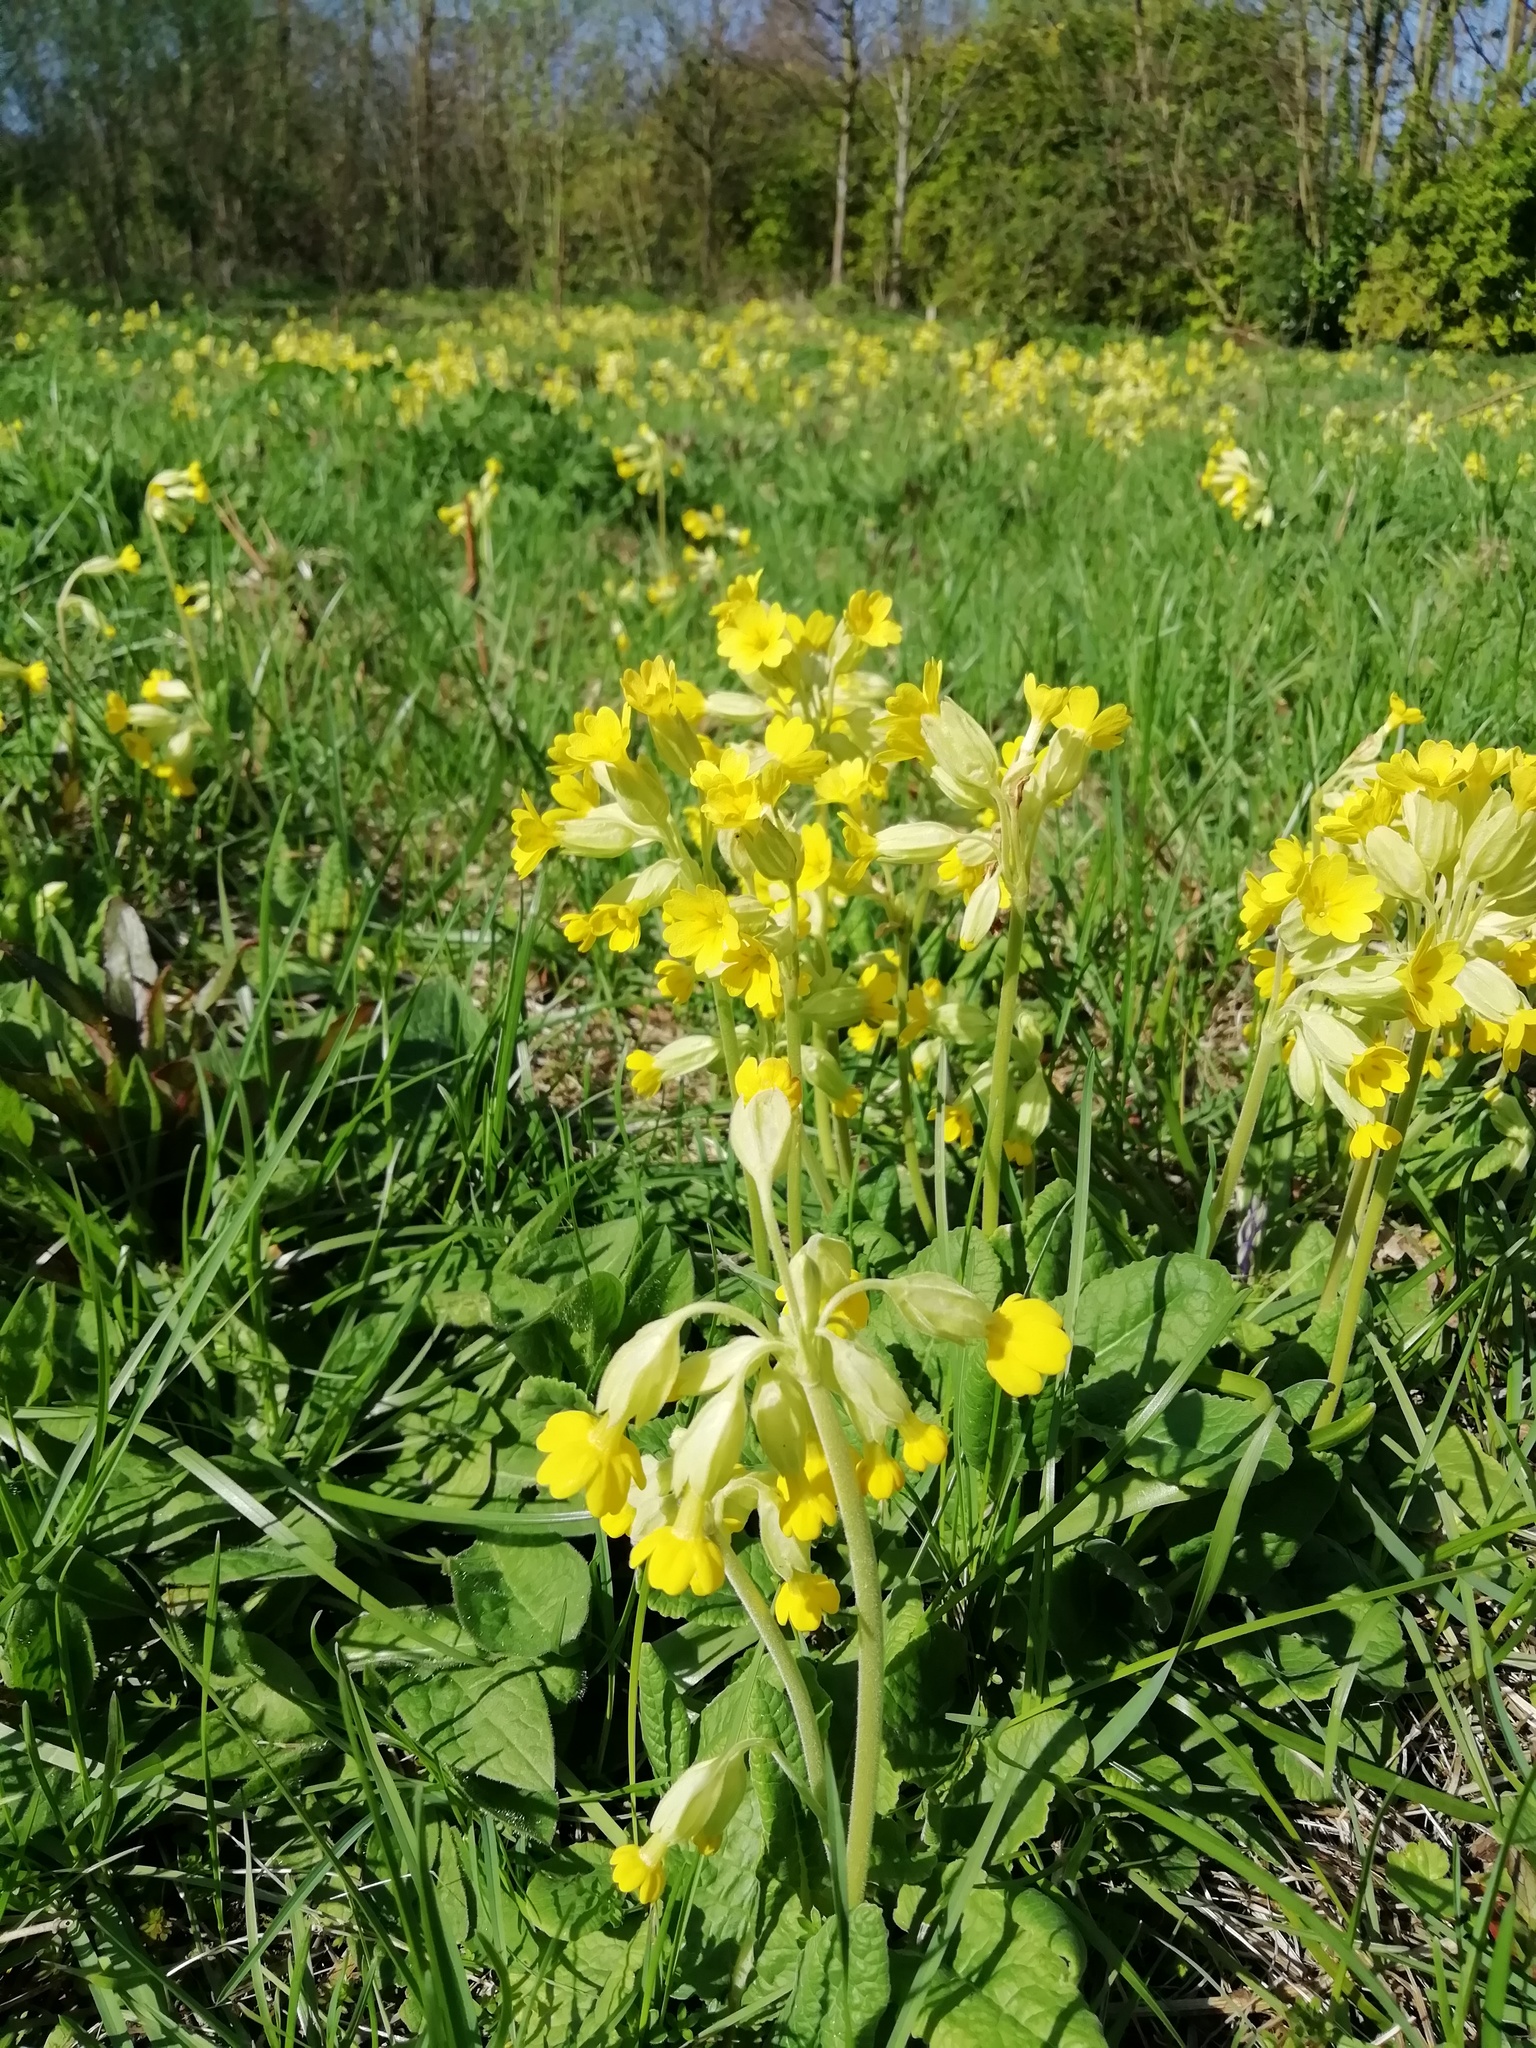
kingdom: Plantae
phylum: Tracheophyta
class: Magnoliopsida
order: Ericales
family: Primulaceae
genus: Primula
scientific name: Primula veris
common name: Cowslip
